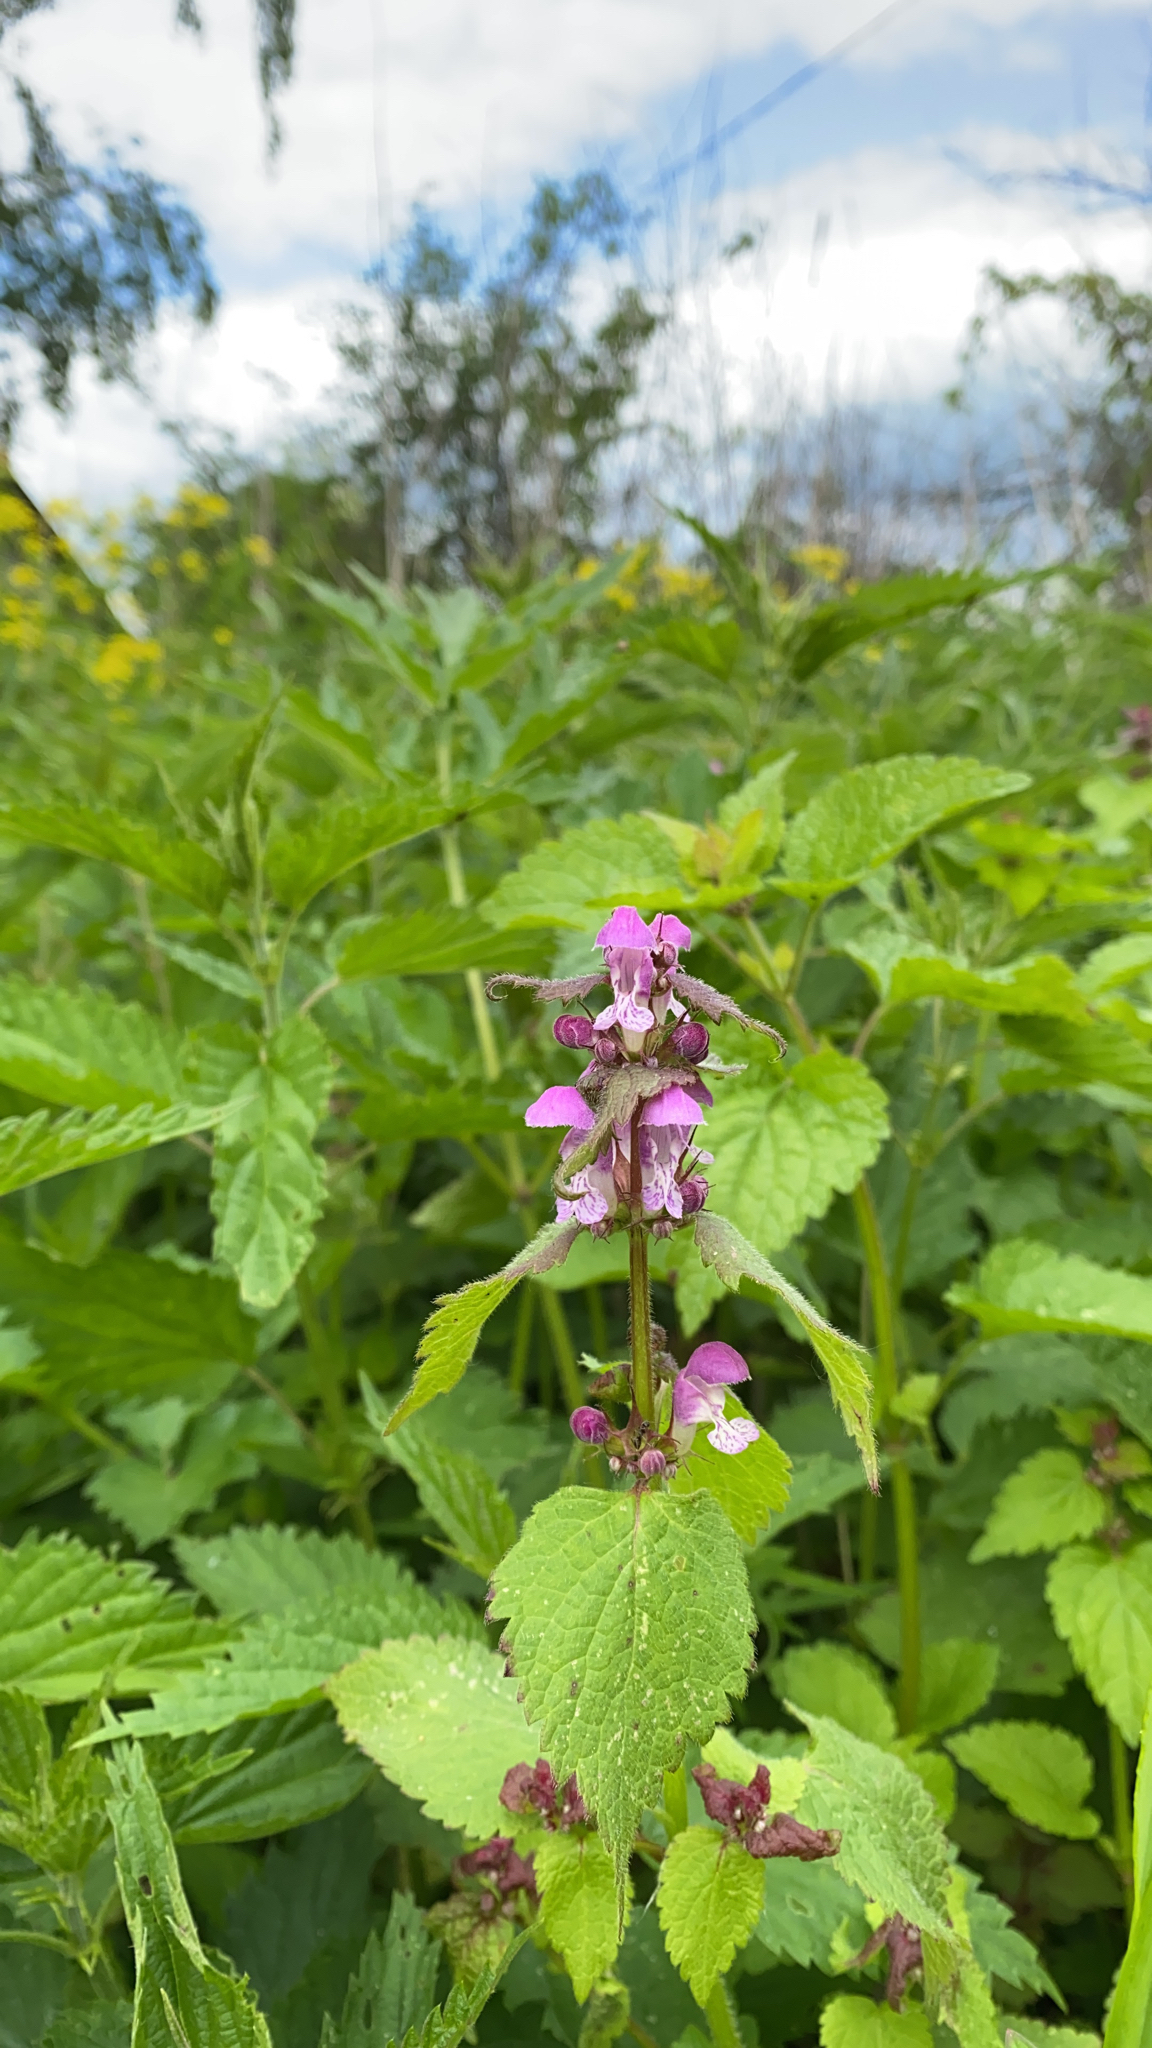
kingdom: Plantae
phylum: Tracheophyta
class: Magnoliopsida
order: Lamiales
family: Lamiaceae
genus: Lamium
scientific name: Lamium maculatum
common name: Spotted dead-nettle
